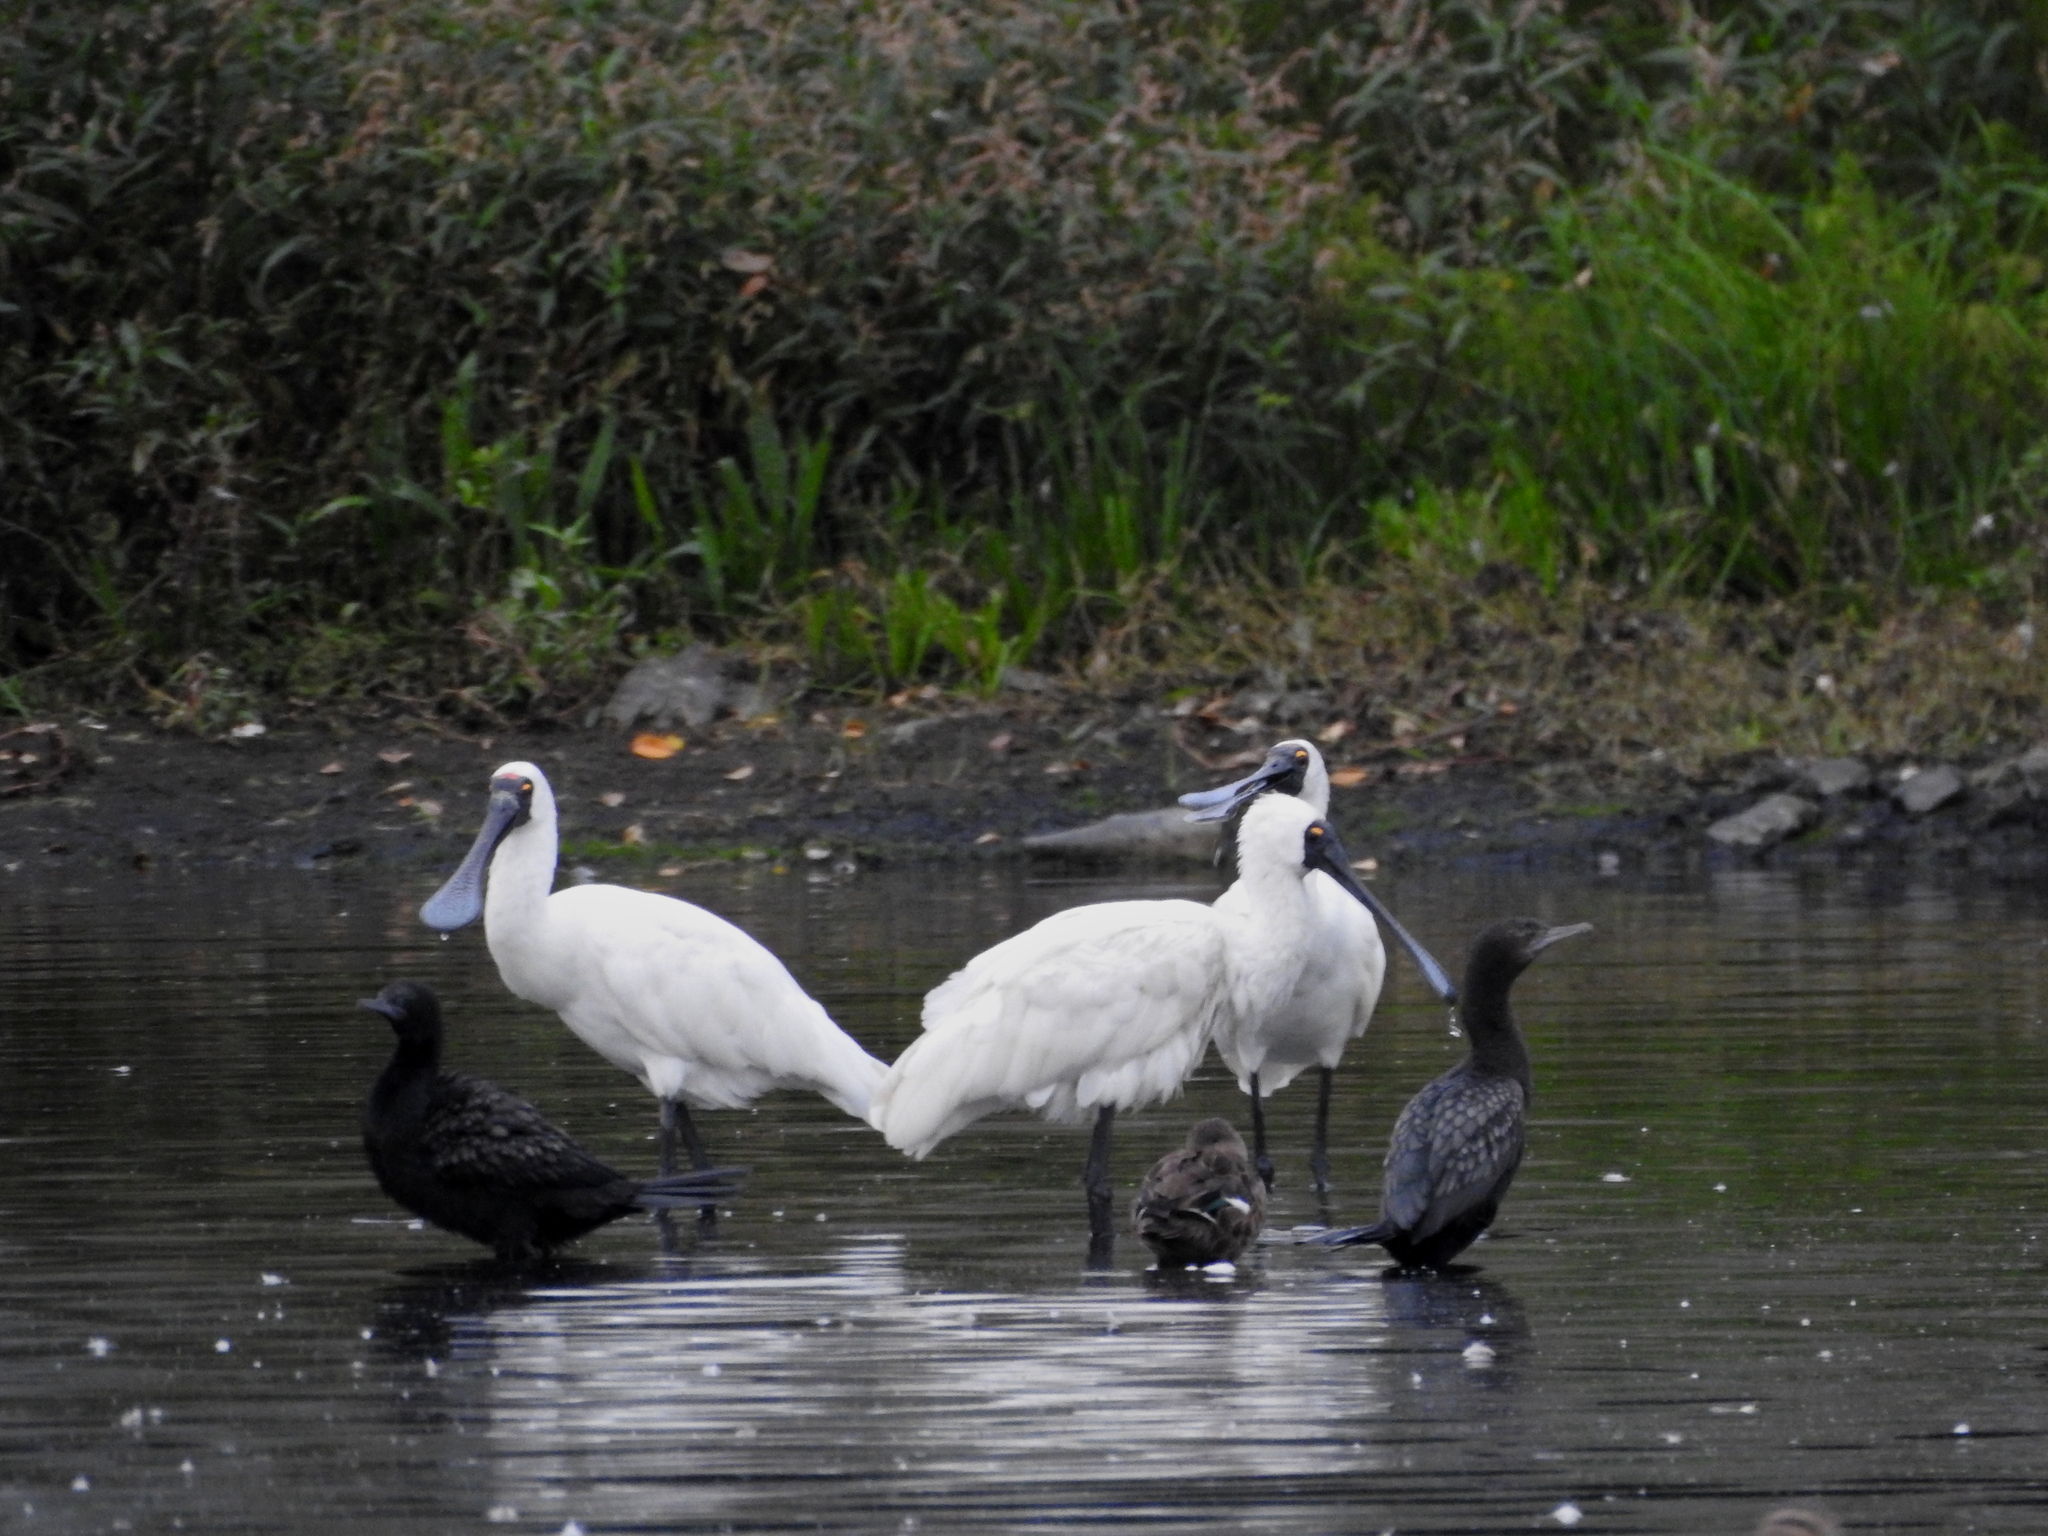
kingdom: Animalia
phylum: Chordata
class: Aves
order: Pelecaniformes
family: Threskiornithidae
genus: Platalea
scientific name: Platalea regia
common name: Royal spoonbill
